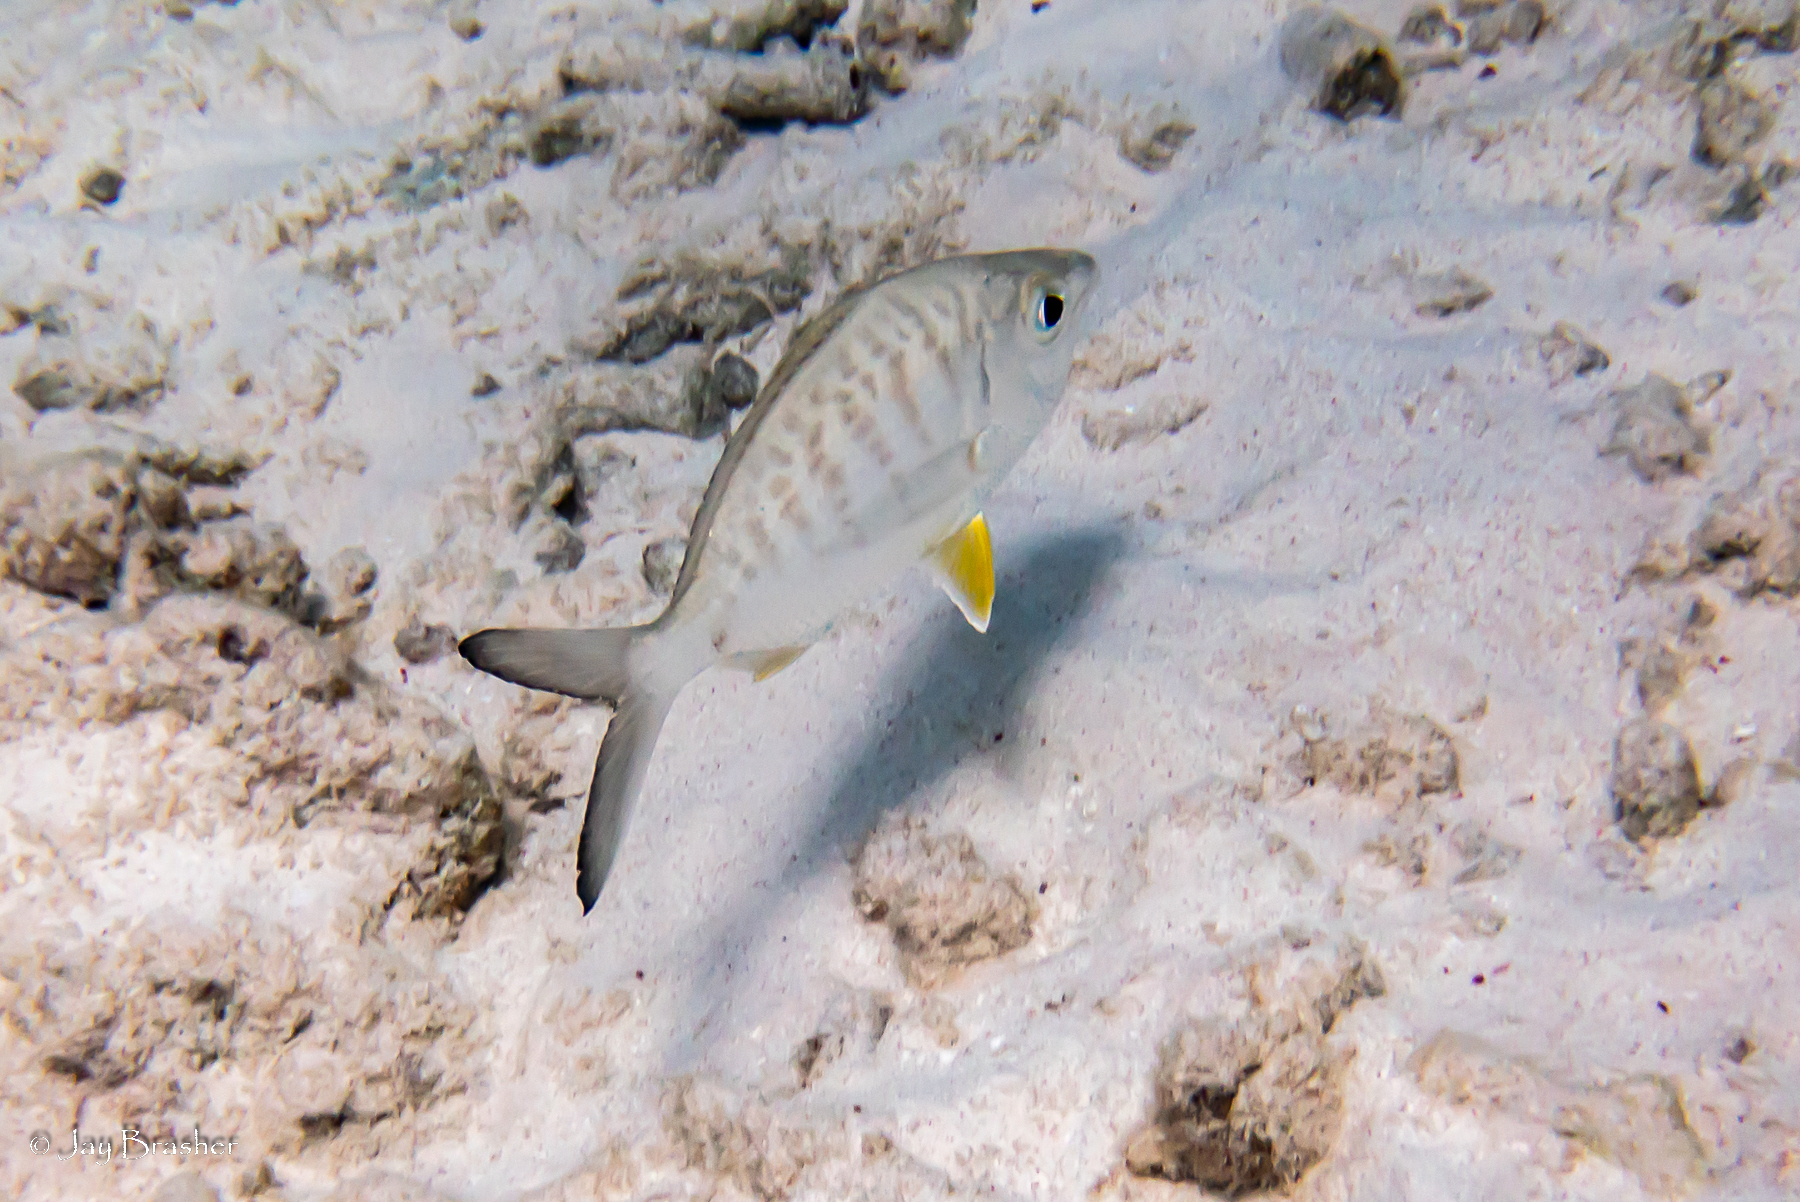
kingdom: Animalia
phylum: Chordata
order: Perciformes
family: Gerreidae
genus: Gerres
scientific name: Gerres cinereus
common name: Hedow
